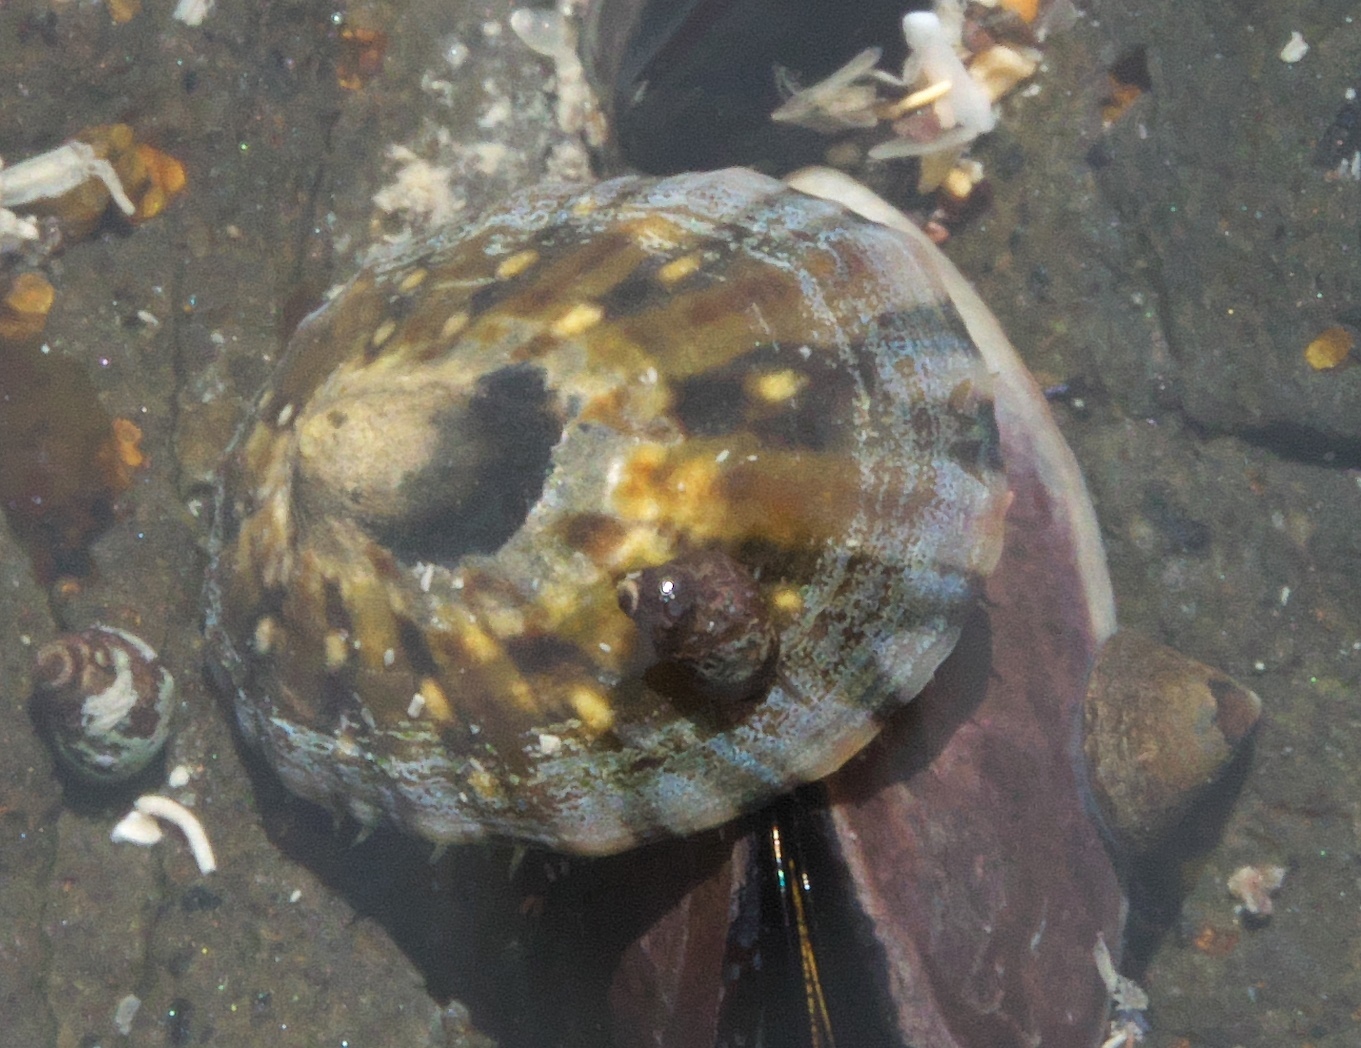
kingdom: Animalia
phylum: Mollusca
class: Gastropoda
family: Nacellidae
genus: Cellana
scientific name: Cellana ornata
